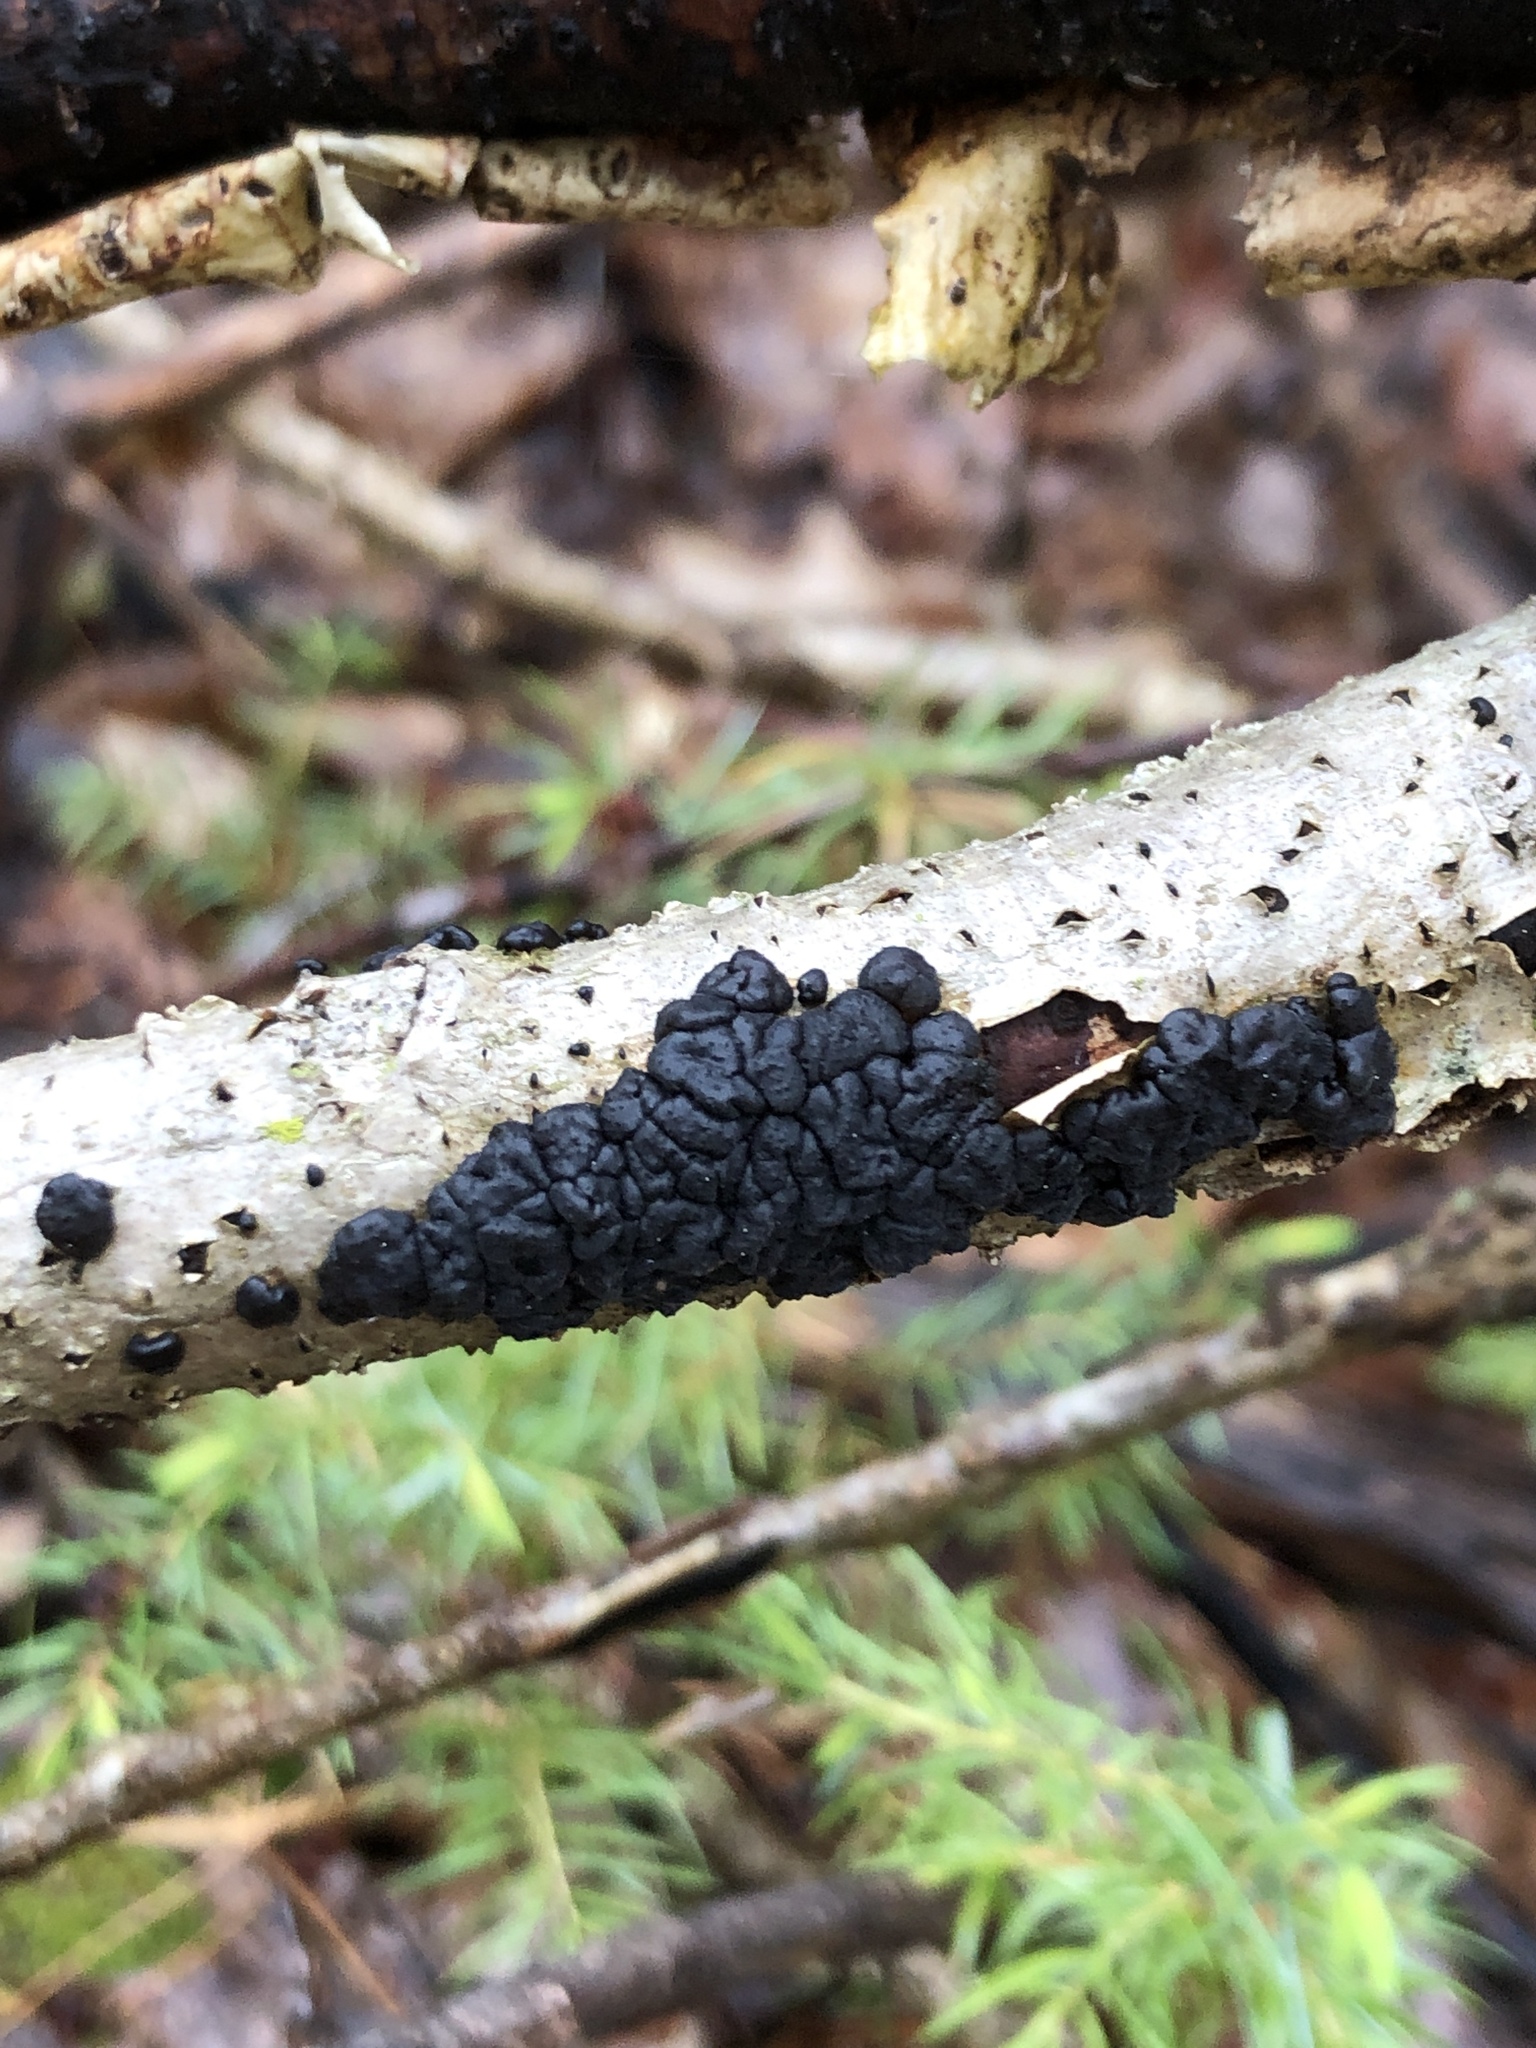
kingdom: Fungi
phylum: Basidiomycota
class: Agaricomycetes
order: Auriculariales
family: Auriculariaceae
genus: Exidia
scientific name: Exidia glandulosa
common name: Witches' butter
